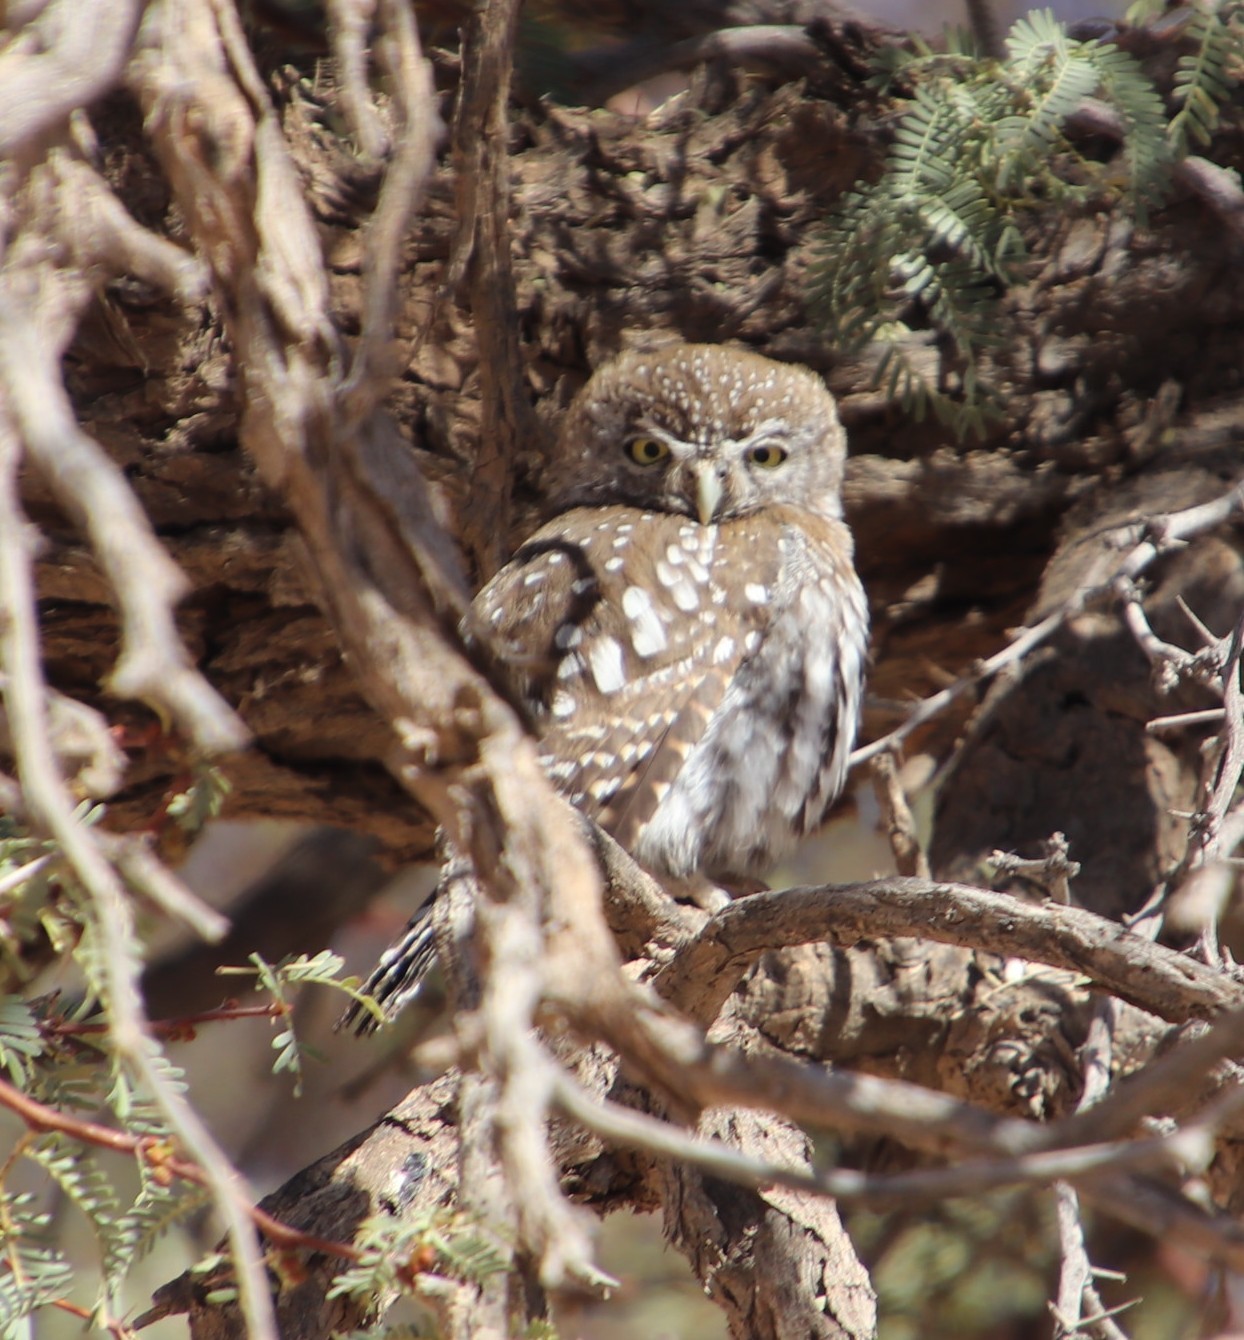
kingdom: Animalia
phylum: Chordata
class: Aves
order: Strigiformes
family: Strigidae
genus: Glaucidium
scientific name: Glaucidium perlatum
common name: Pearl-spotted owlet
